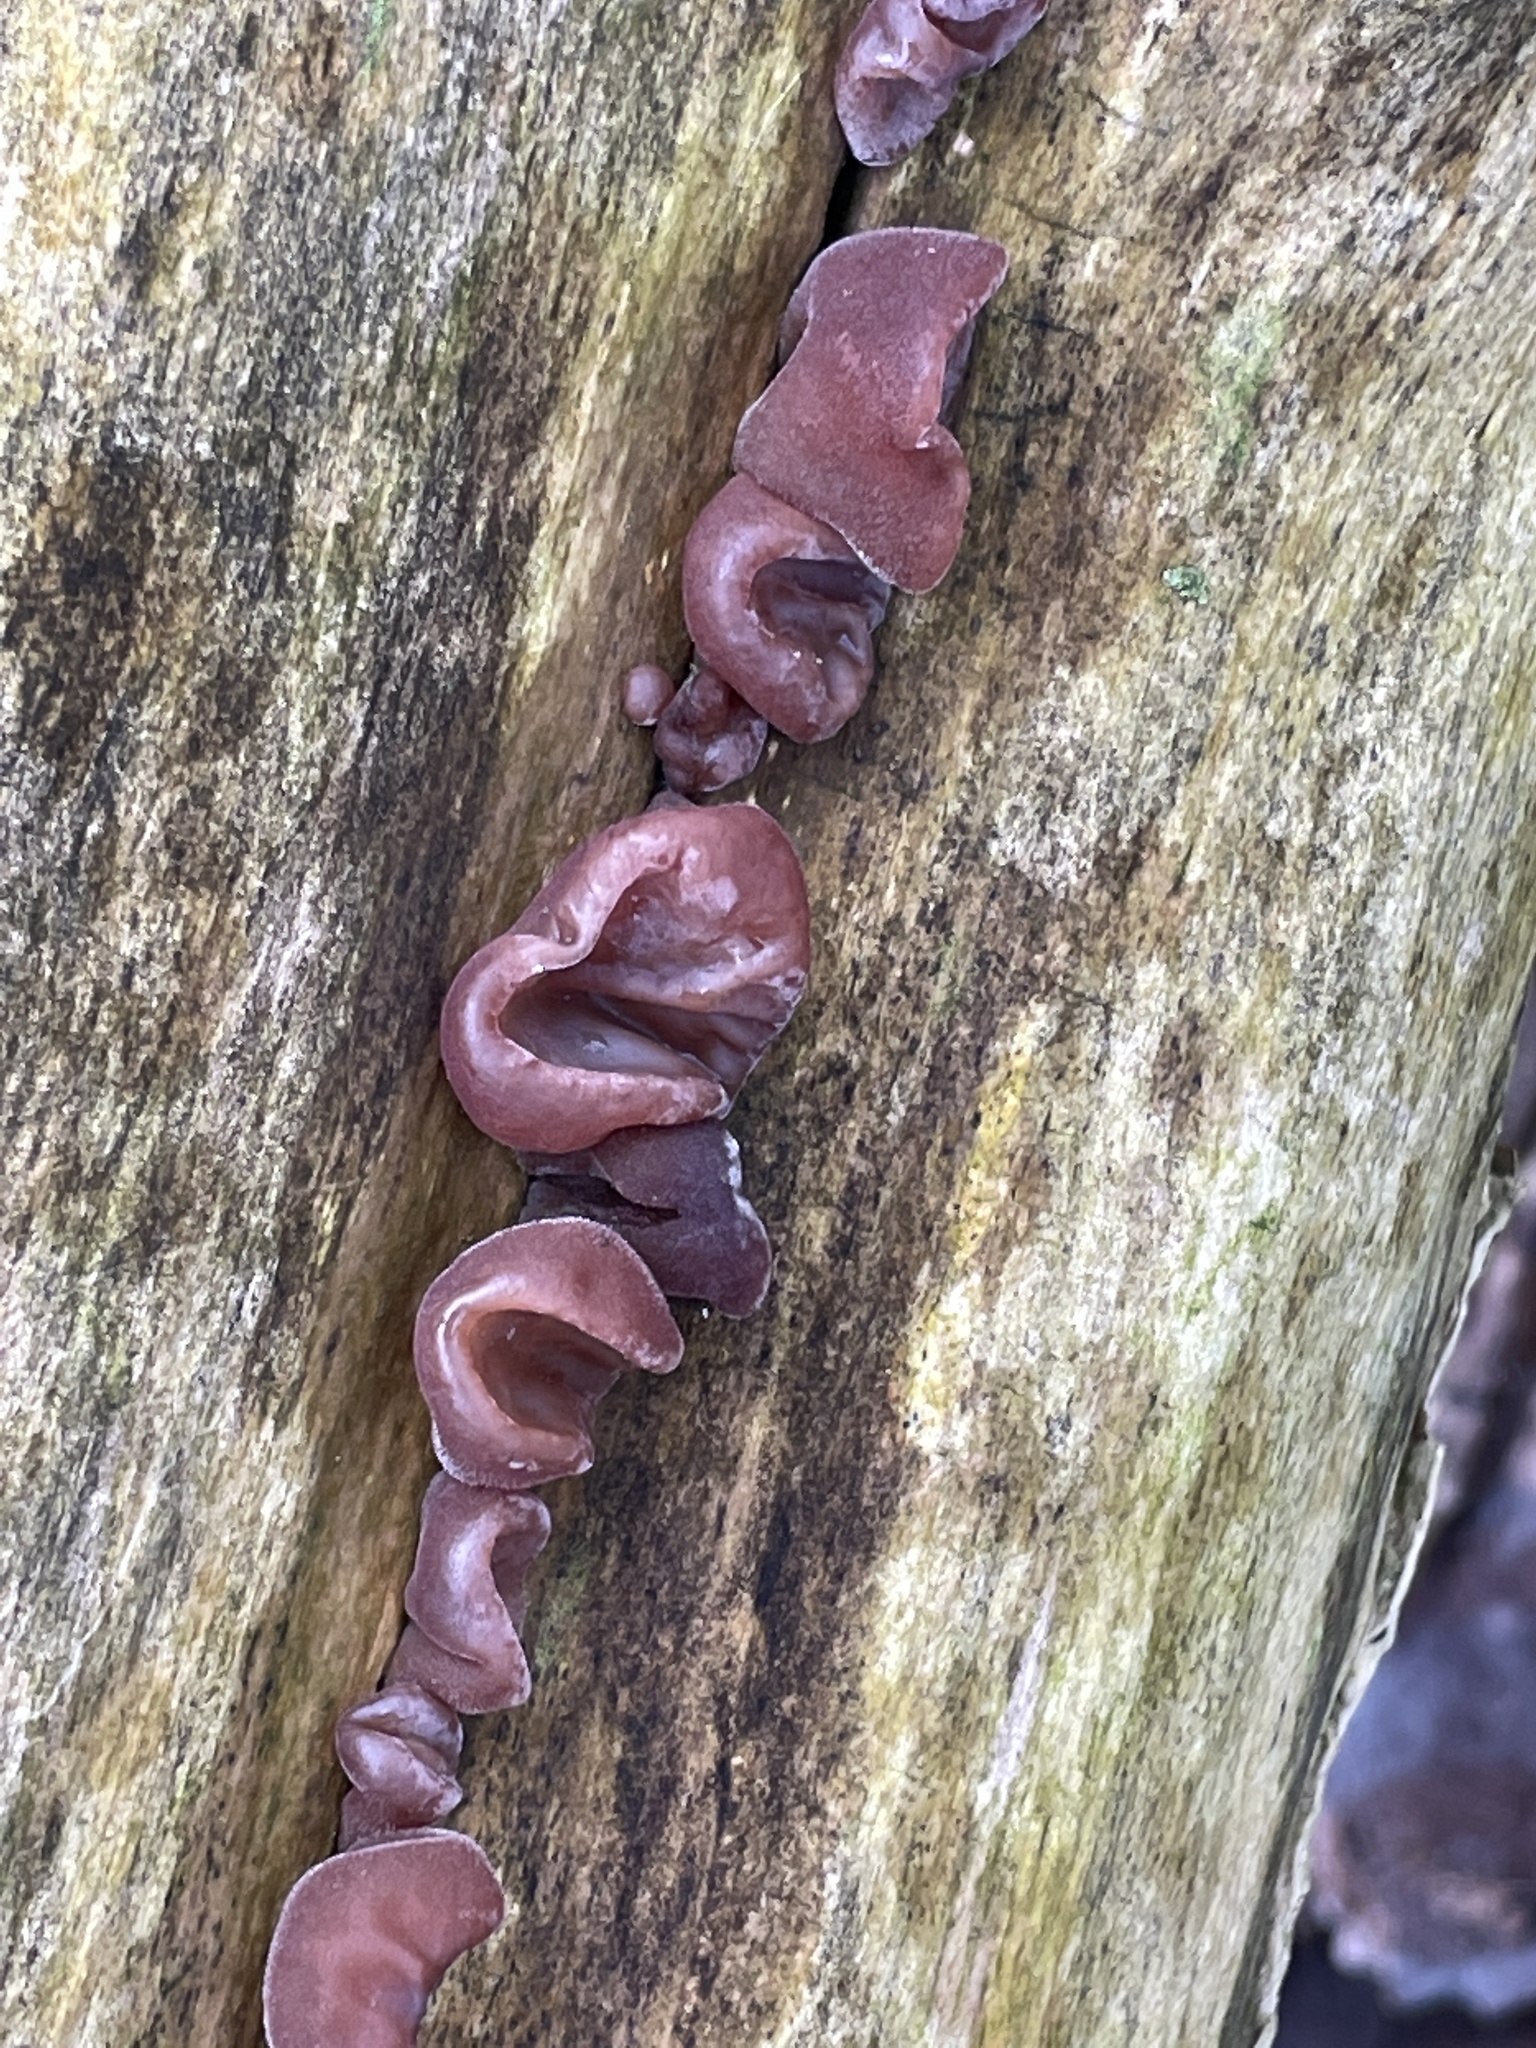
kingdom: Fungi
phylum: Basidiomycota
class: Agaricomycetes
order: Auriculariales
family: Auriculariaceae
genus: Auricularia
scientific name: Auricularia auricula-judae
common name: Jelly ear
